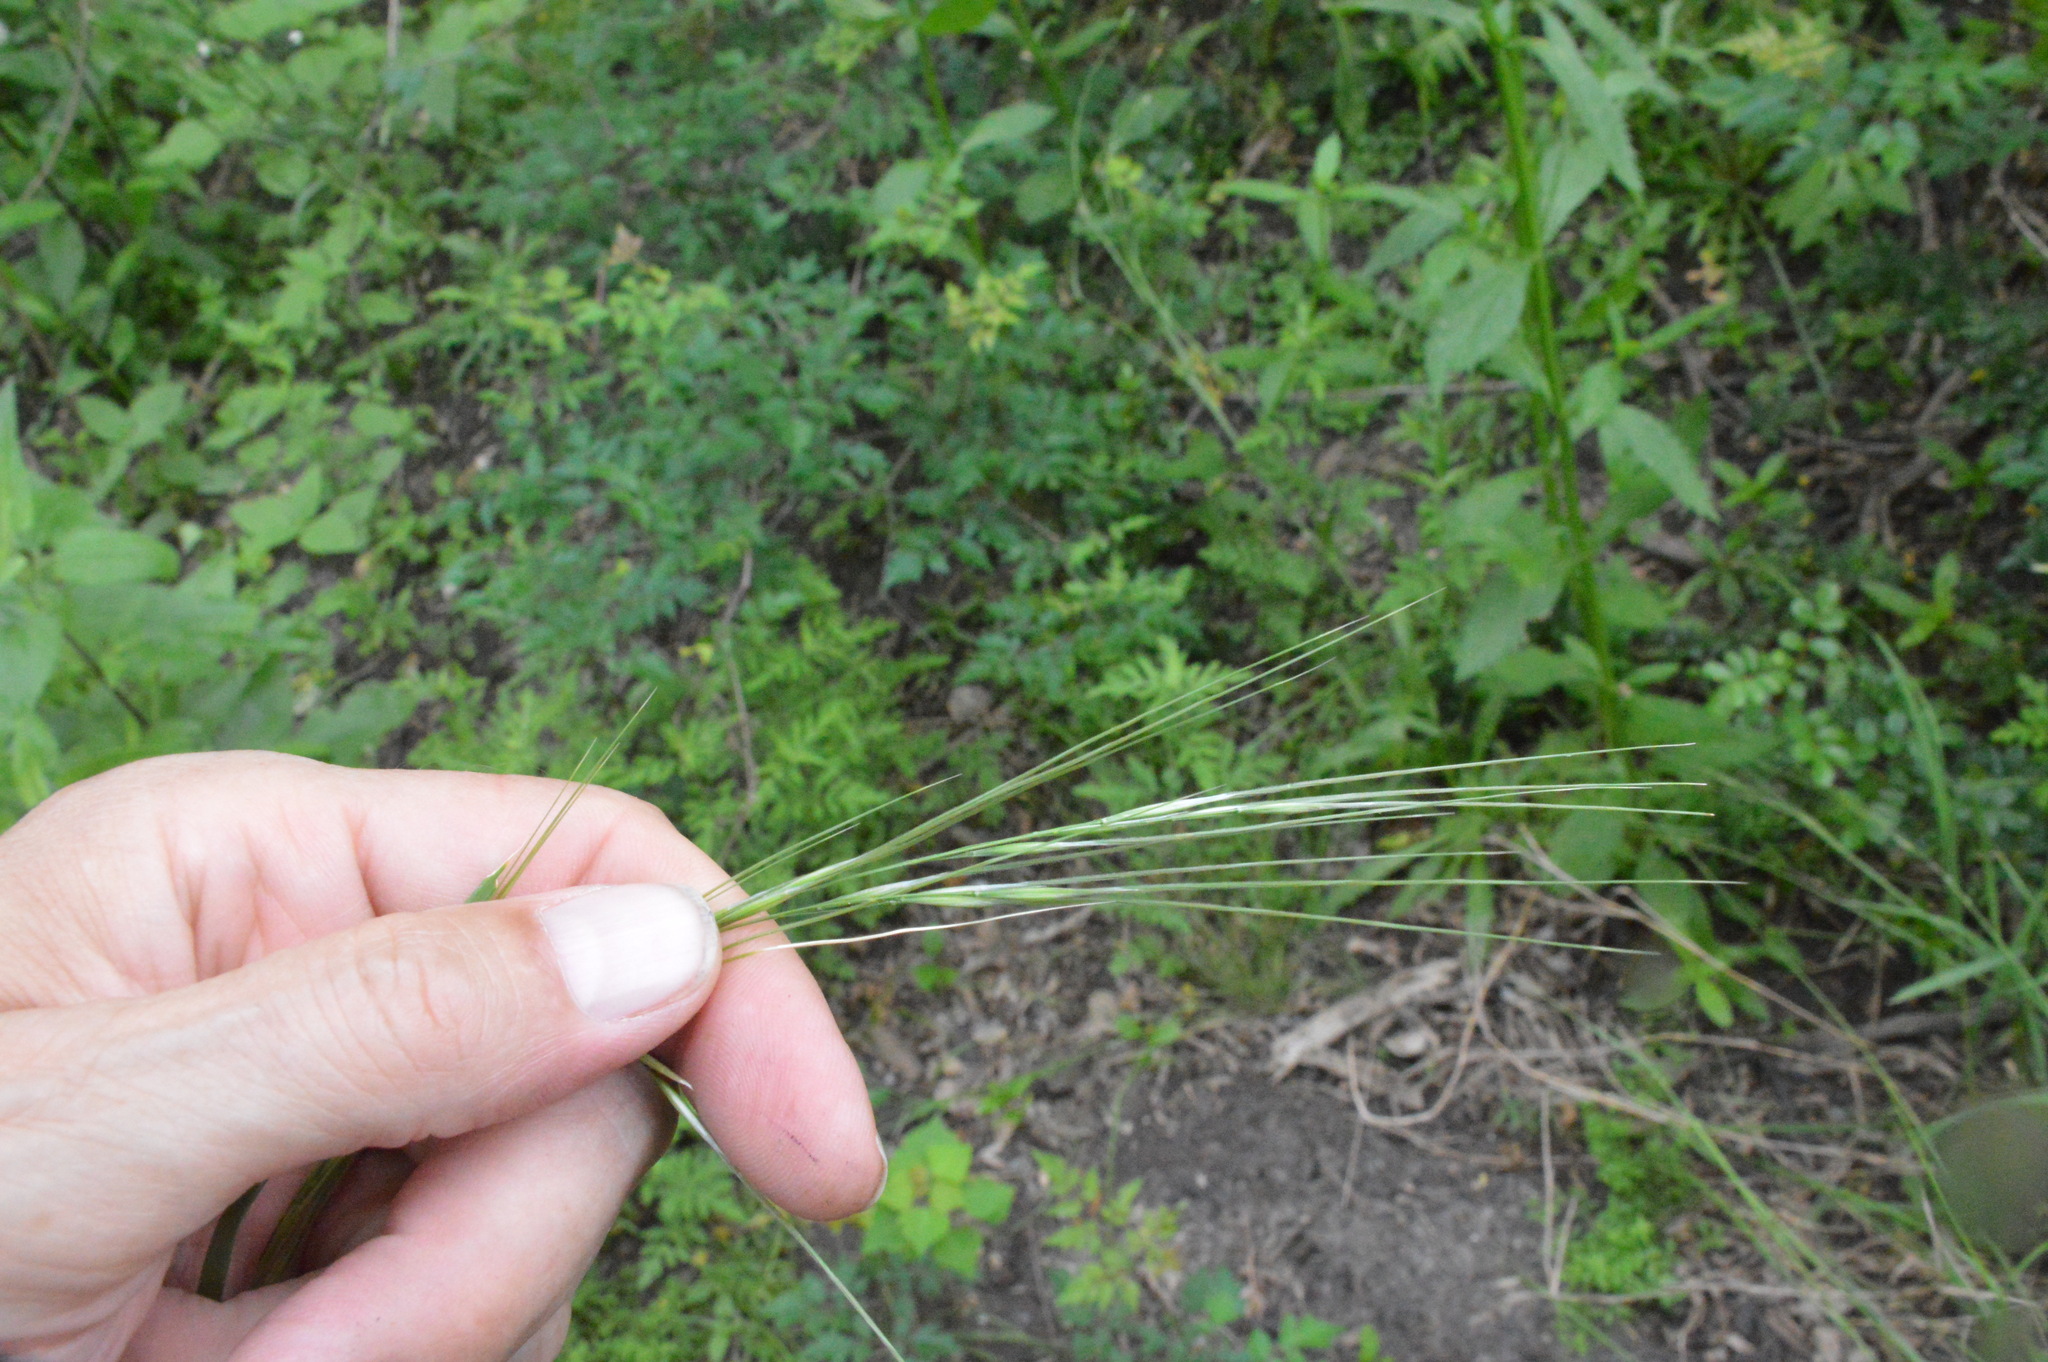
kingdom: Plantae
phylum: Tracheophyta
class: Liliopsida
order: Poales
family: Poaceae
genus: Nassella
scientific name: Nassella leucotricha
